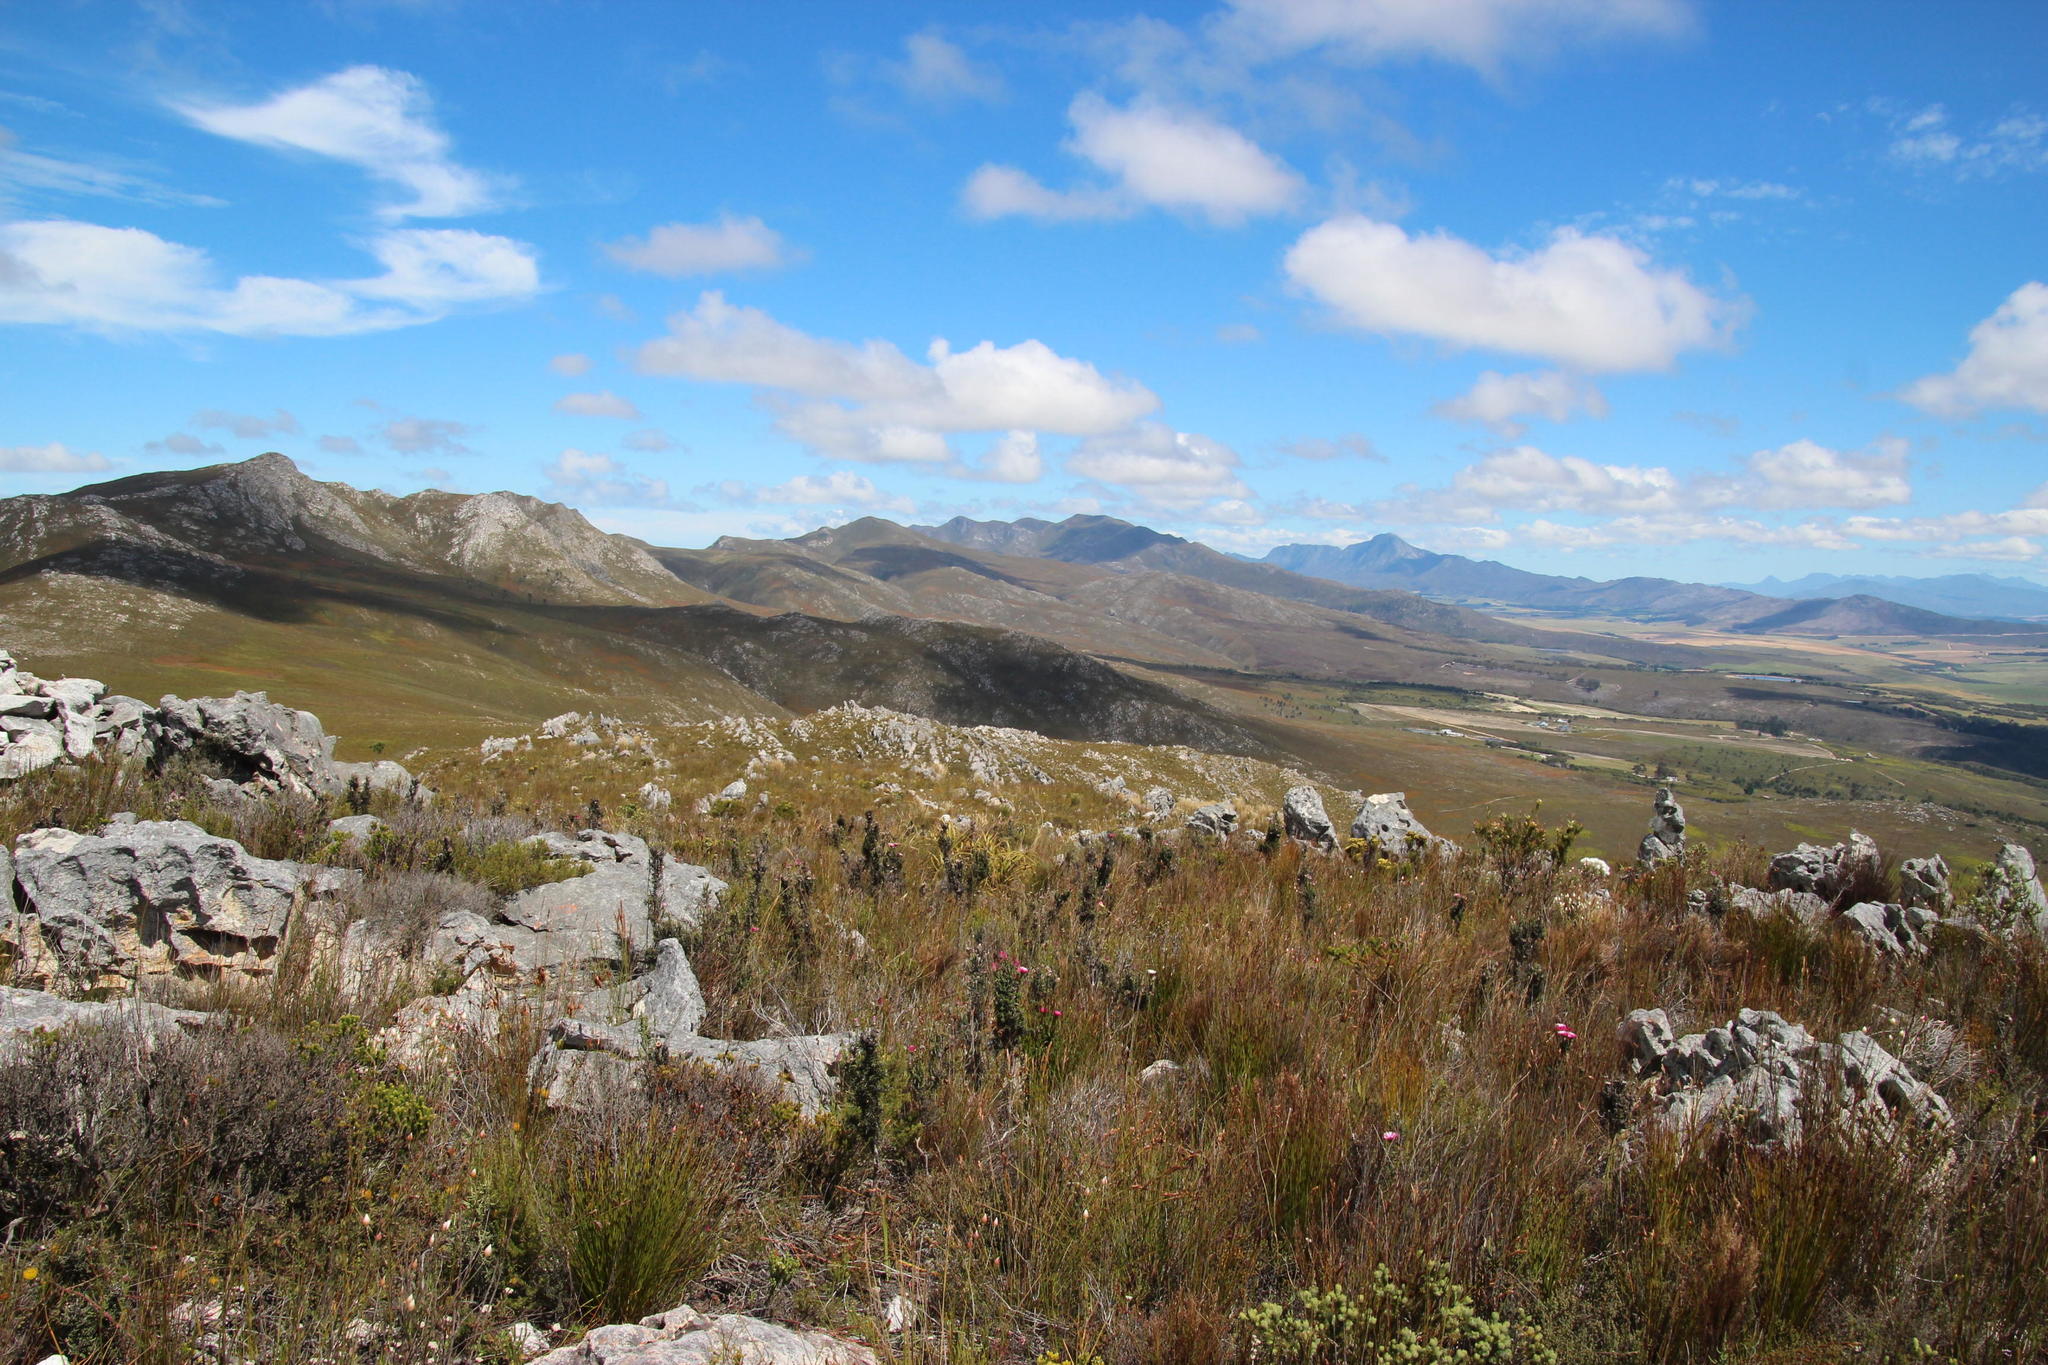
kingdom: Plantae
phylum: Tracheophyta
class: Magnoliopsida
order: Asterales
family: Asteraceae
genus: Phaenocoma
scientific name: Phaenocoma prolifera
